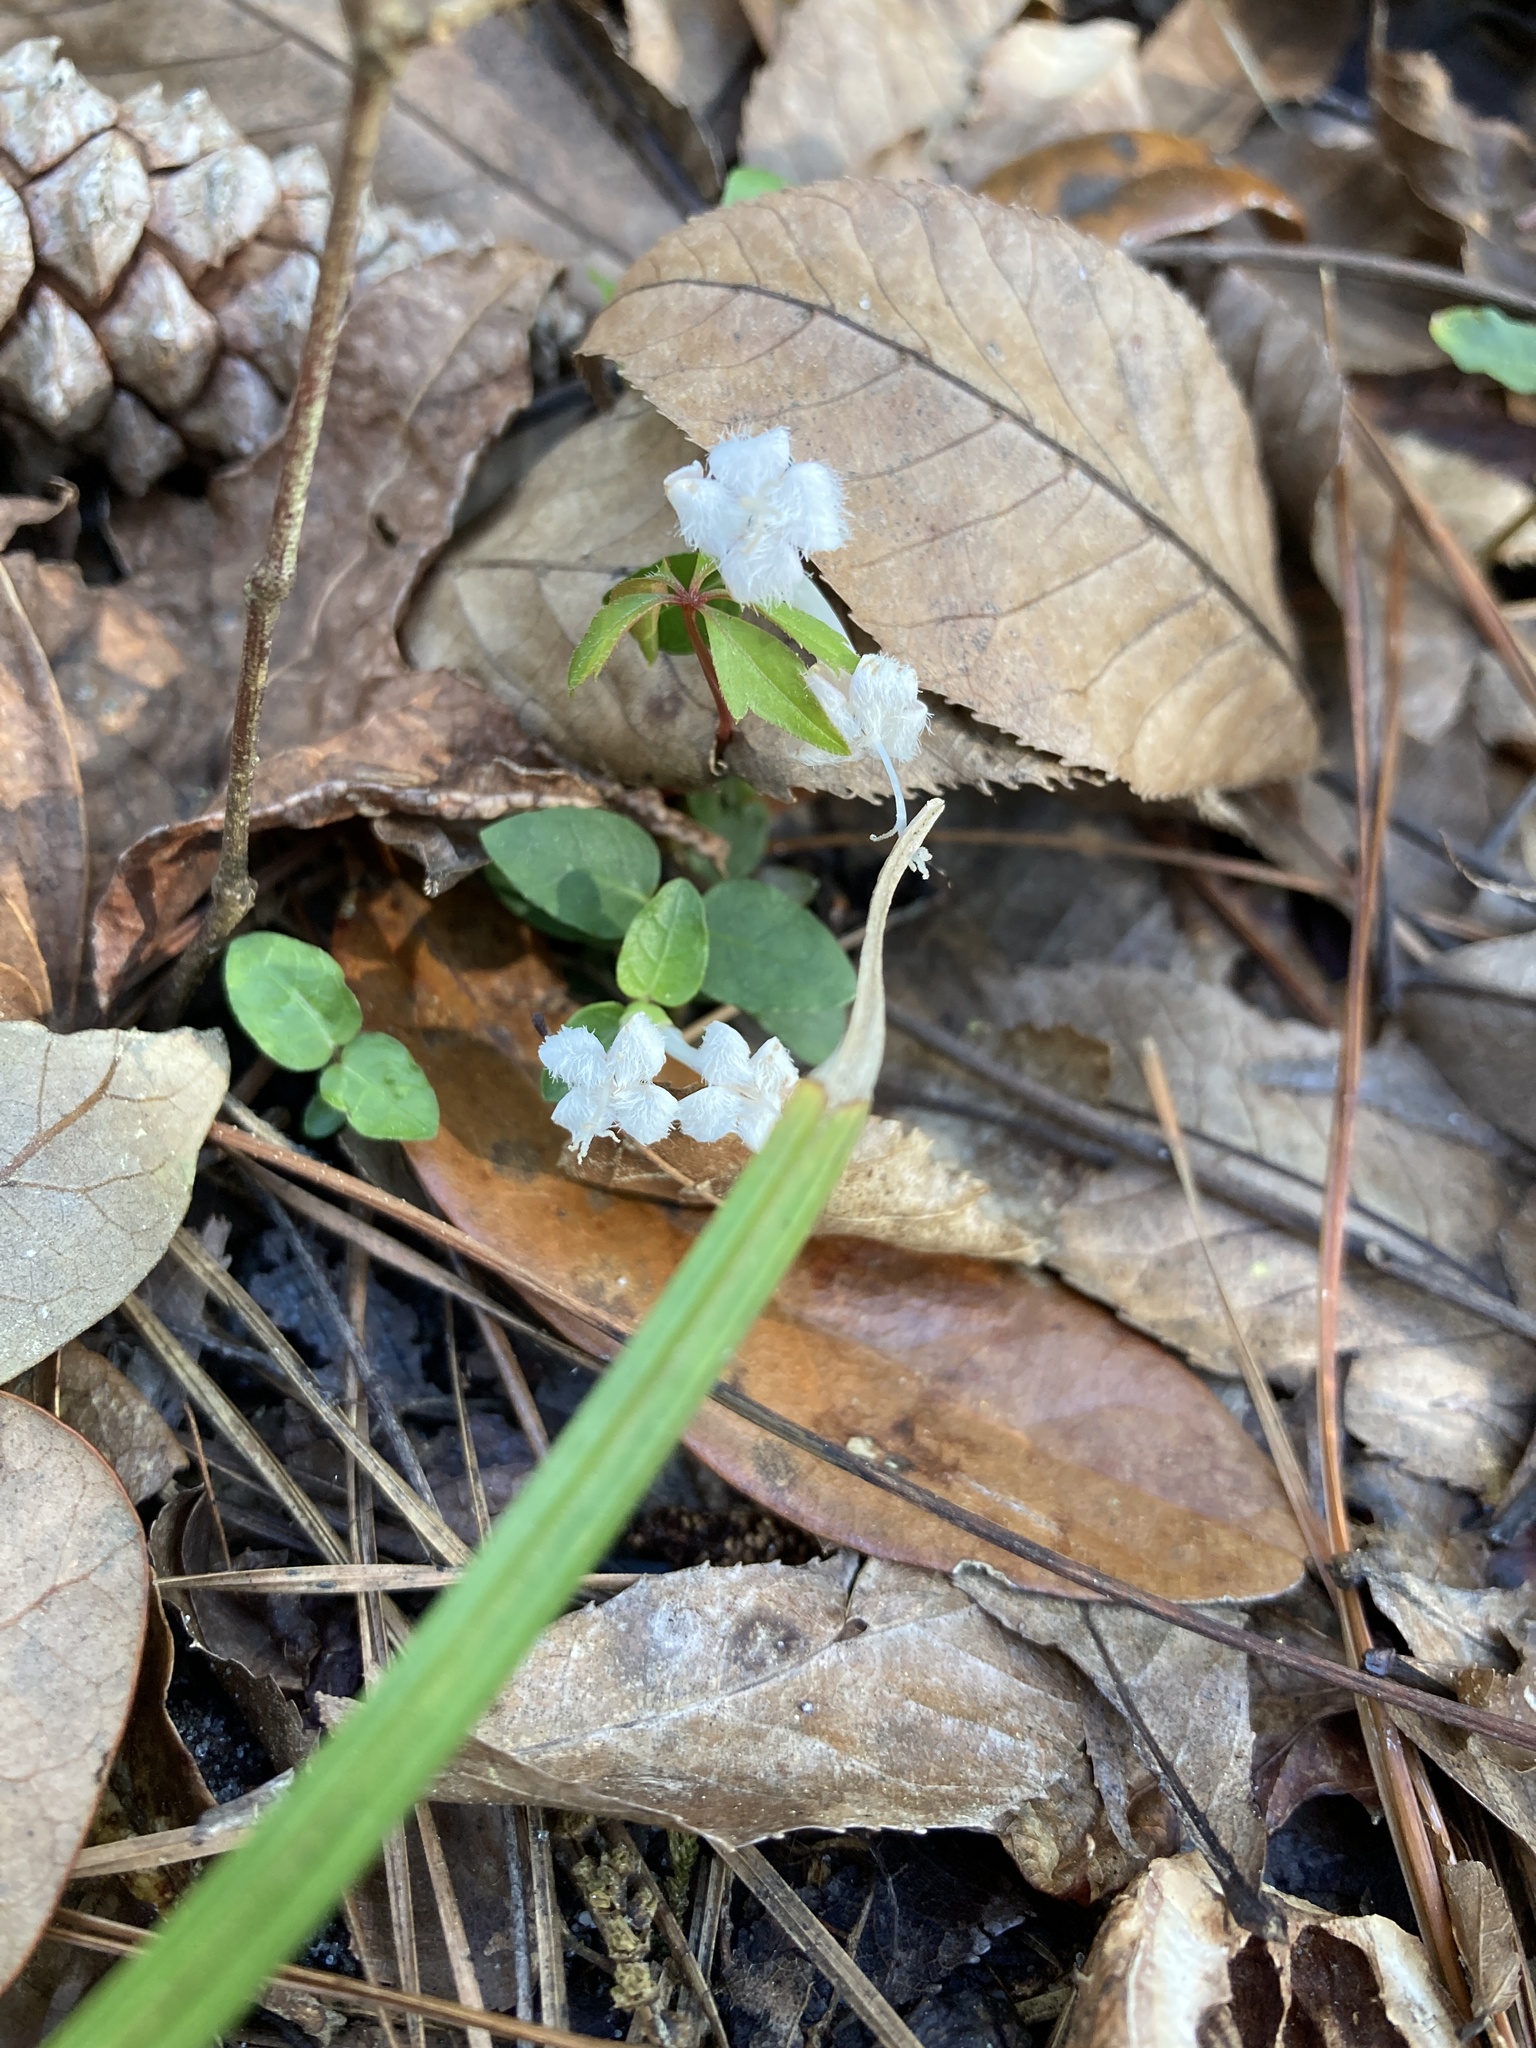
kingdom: Plantae
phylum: Tracheophyta
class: Magnoliopsida
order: Gentianales
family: Rubiaceae
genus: Mitchella
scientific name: Mitchella repens
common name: Partridge-berry
